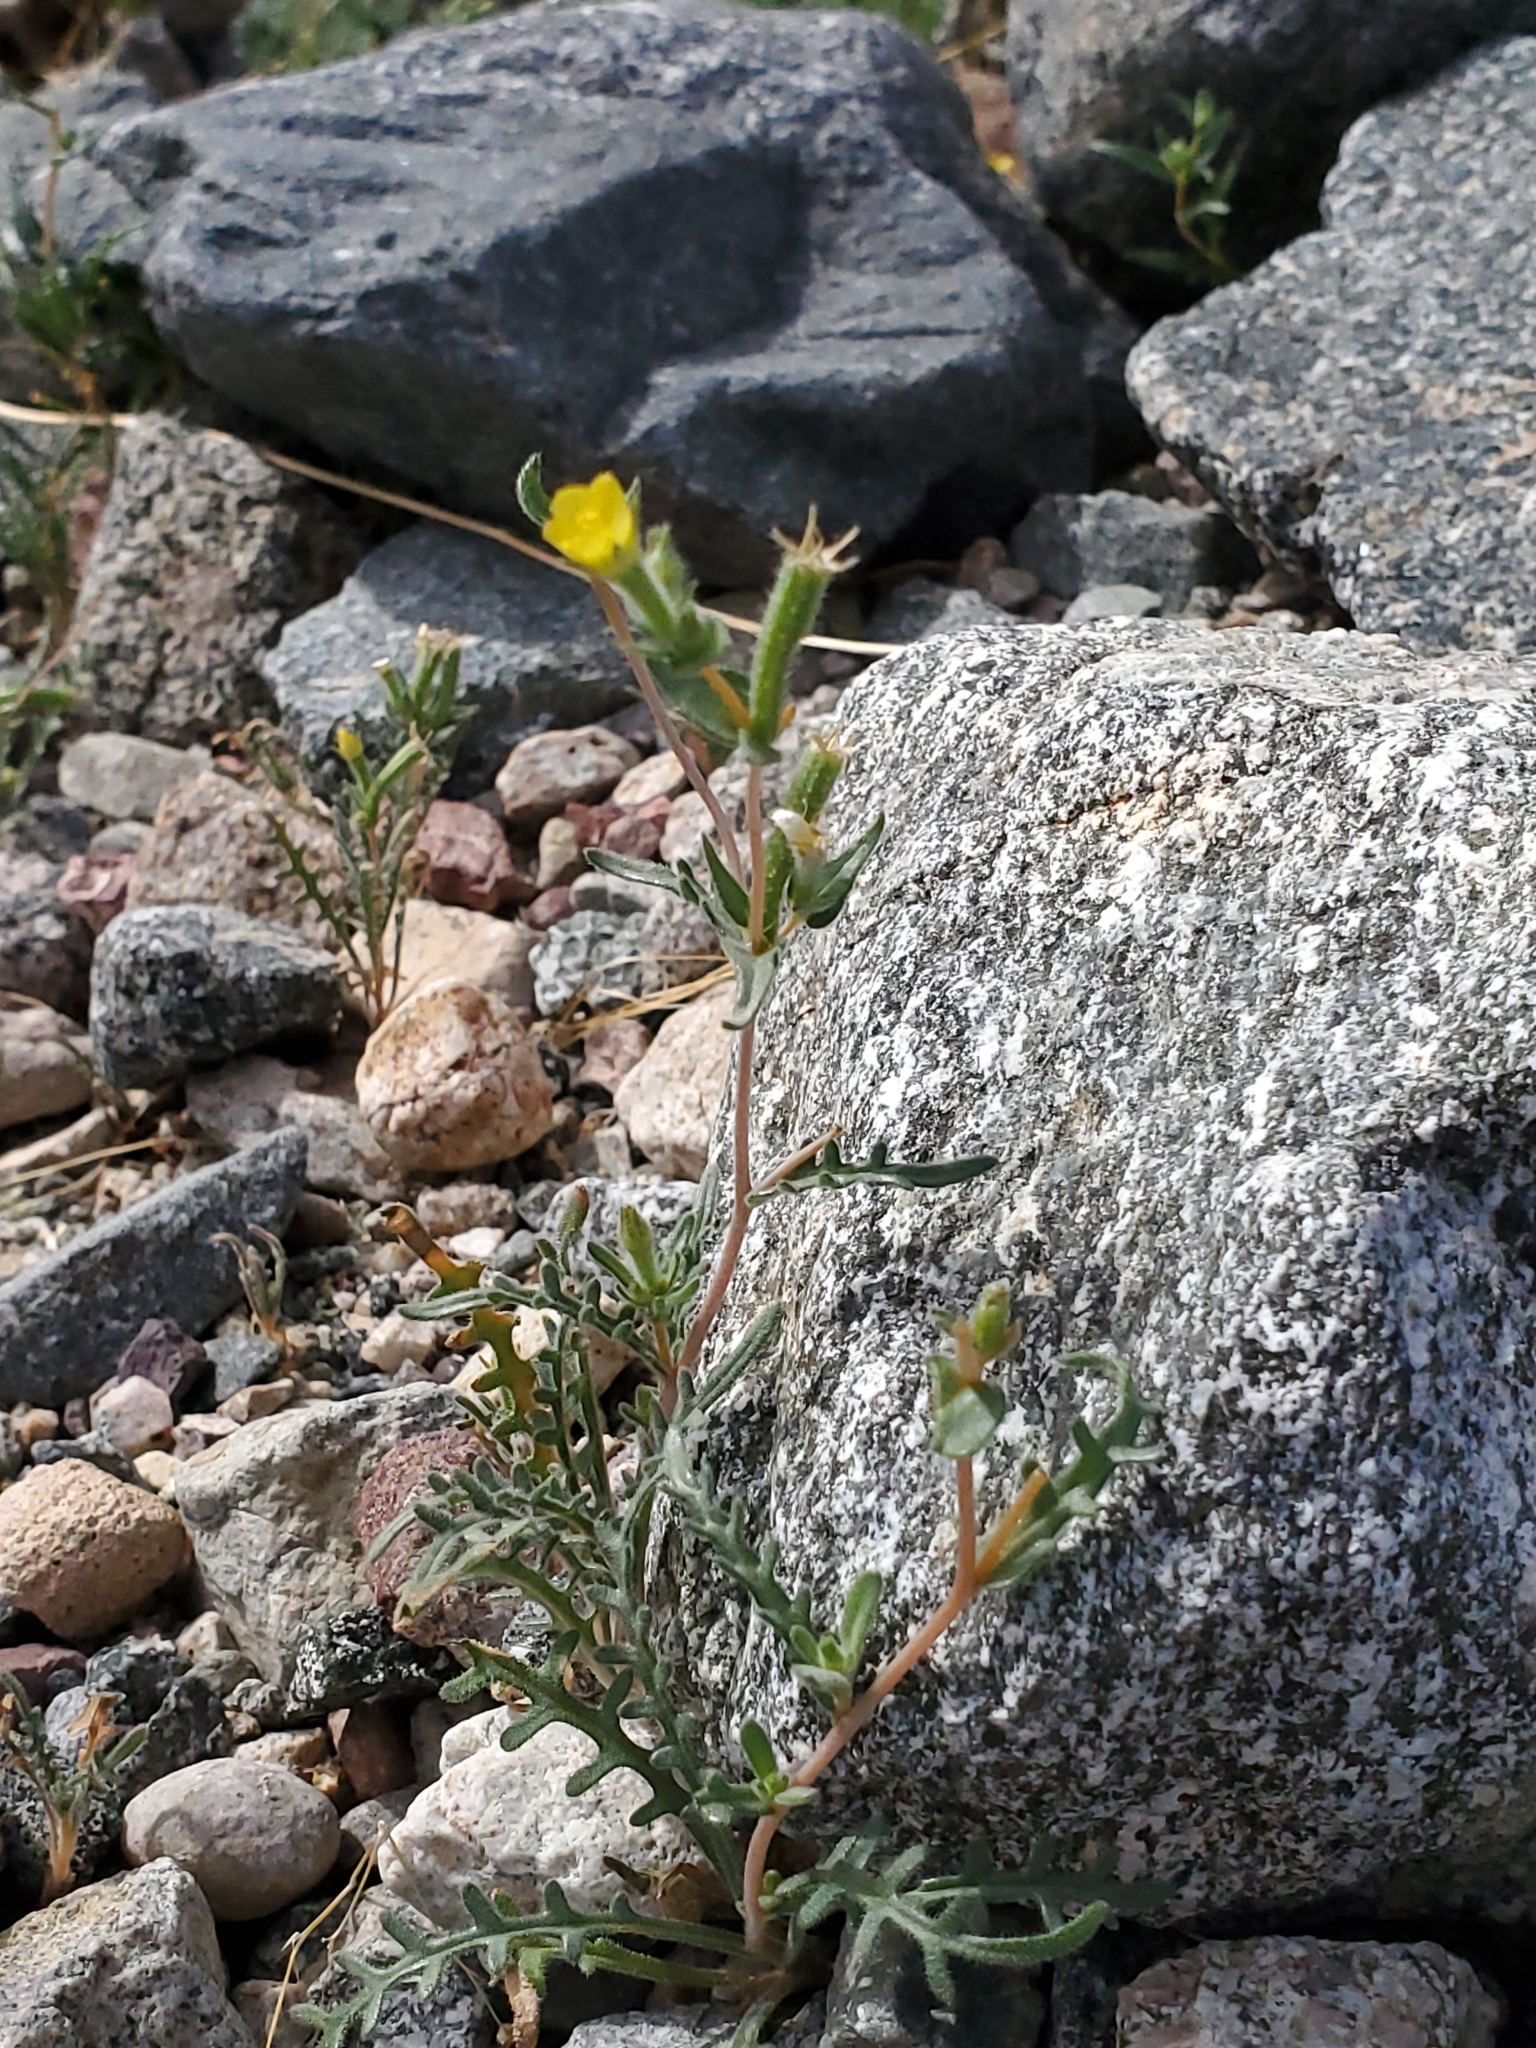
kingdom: Plantae
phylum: Tracheophyta
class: Magnoliopsida
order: Cornales
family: Loasaceae
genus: Mentzelia
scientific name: Mentzelia albicaulis
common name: White-stem blazingstar
